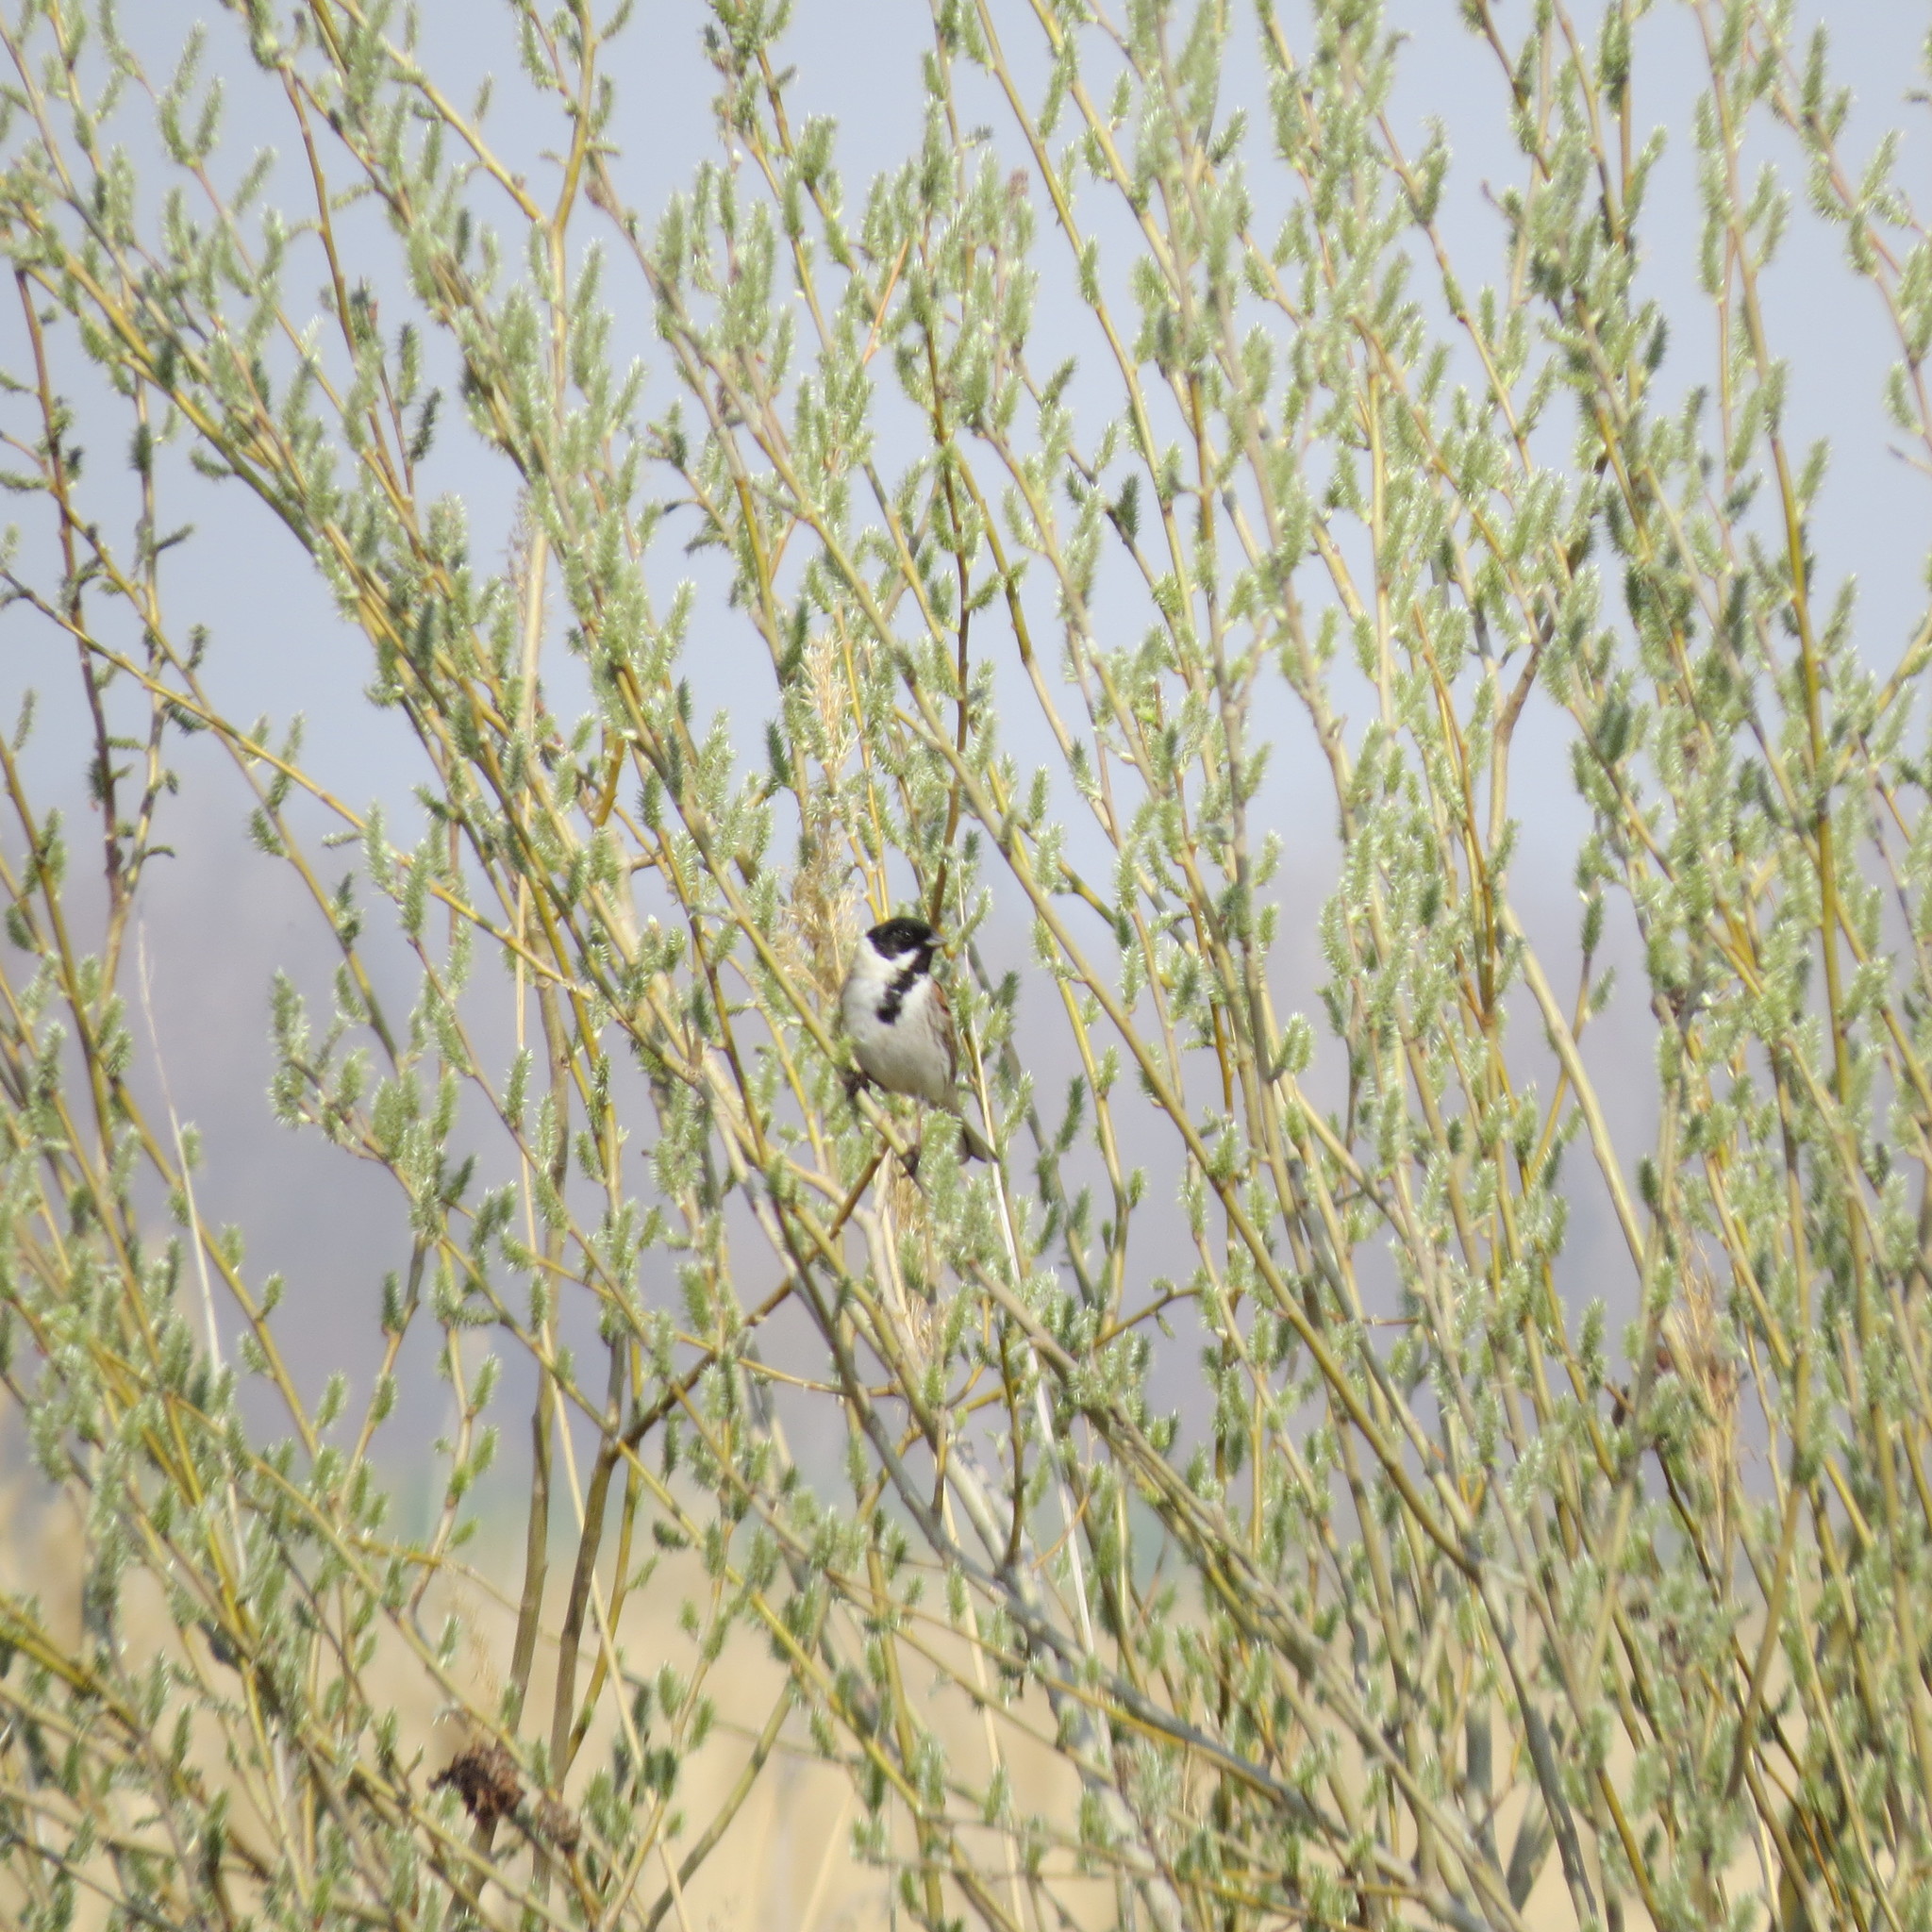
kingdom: Animalia
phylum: Chordata
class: Aves
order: Passeriformes
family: Emberizidae
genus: Emberiza
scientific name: Emberiza schoeniclus
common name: Reed bunting
